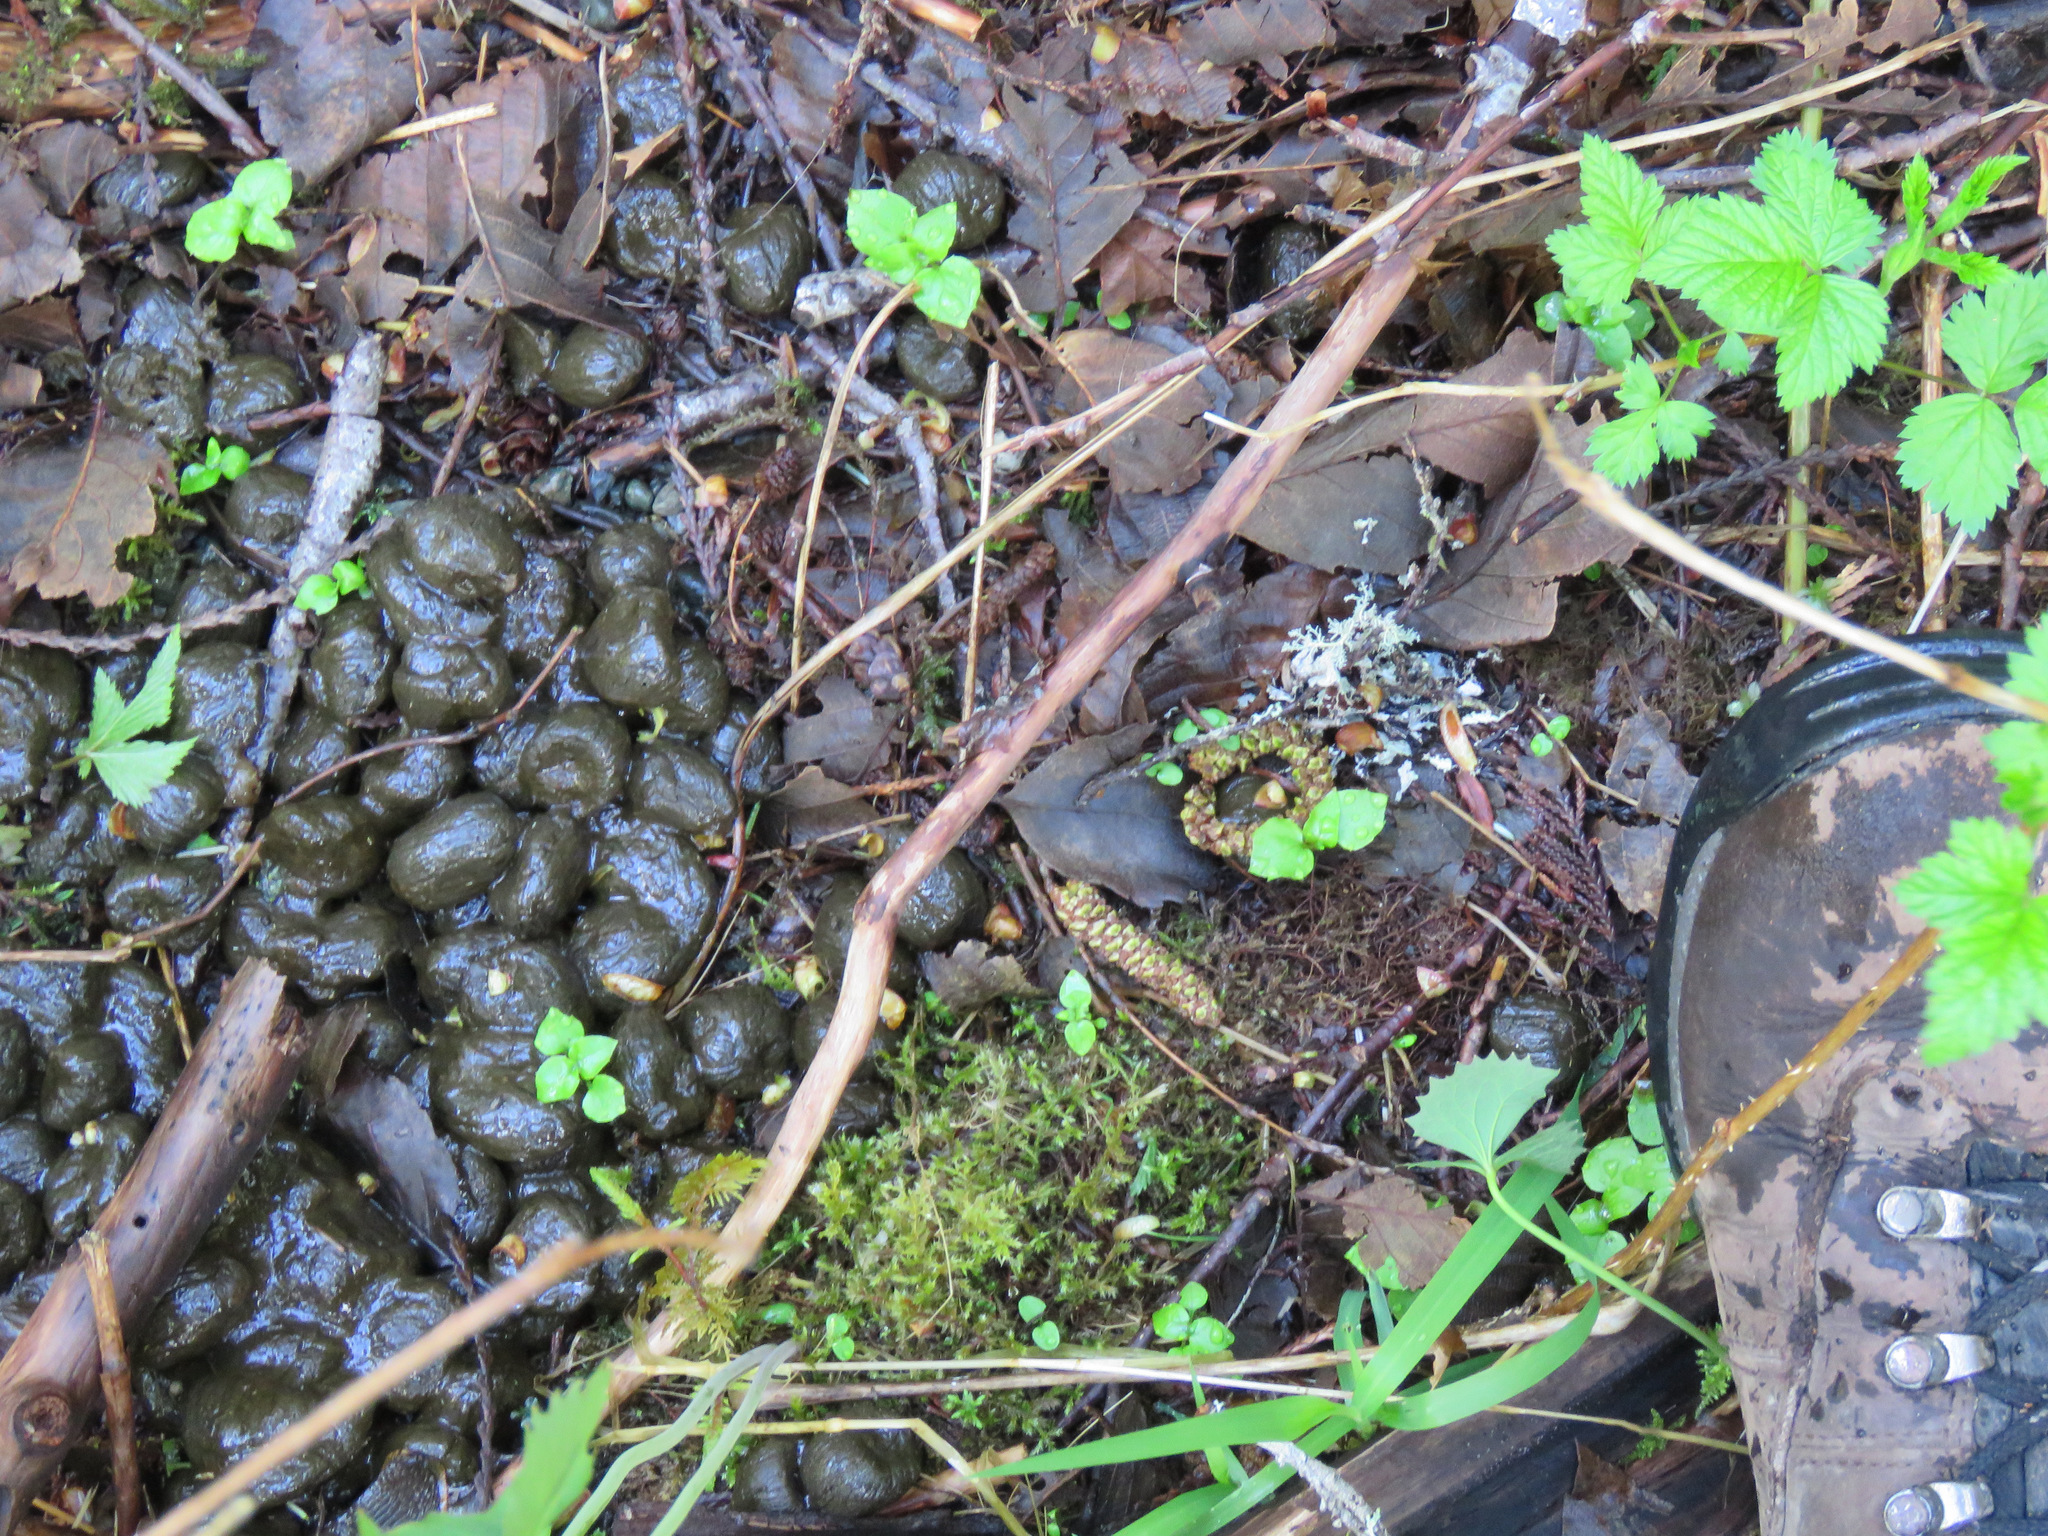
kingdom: Animalia
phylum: Chordata
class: Mammalia
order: Artiodactyla
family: Cervidae
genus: Cervus
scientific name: Cervus elaphus
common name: Red deer
